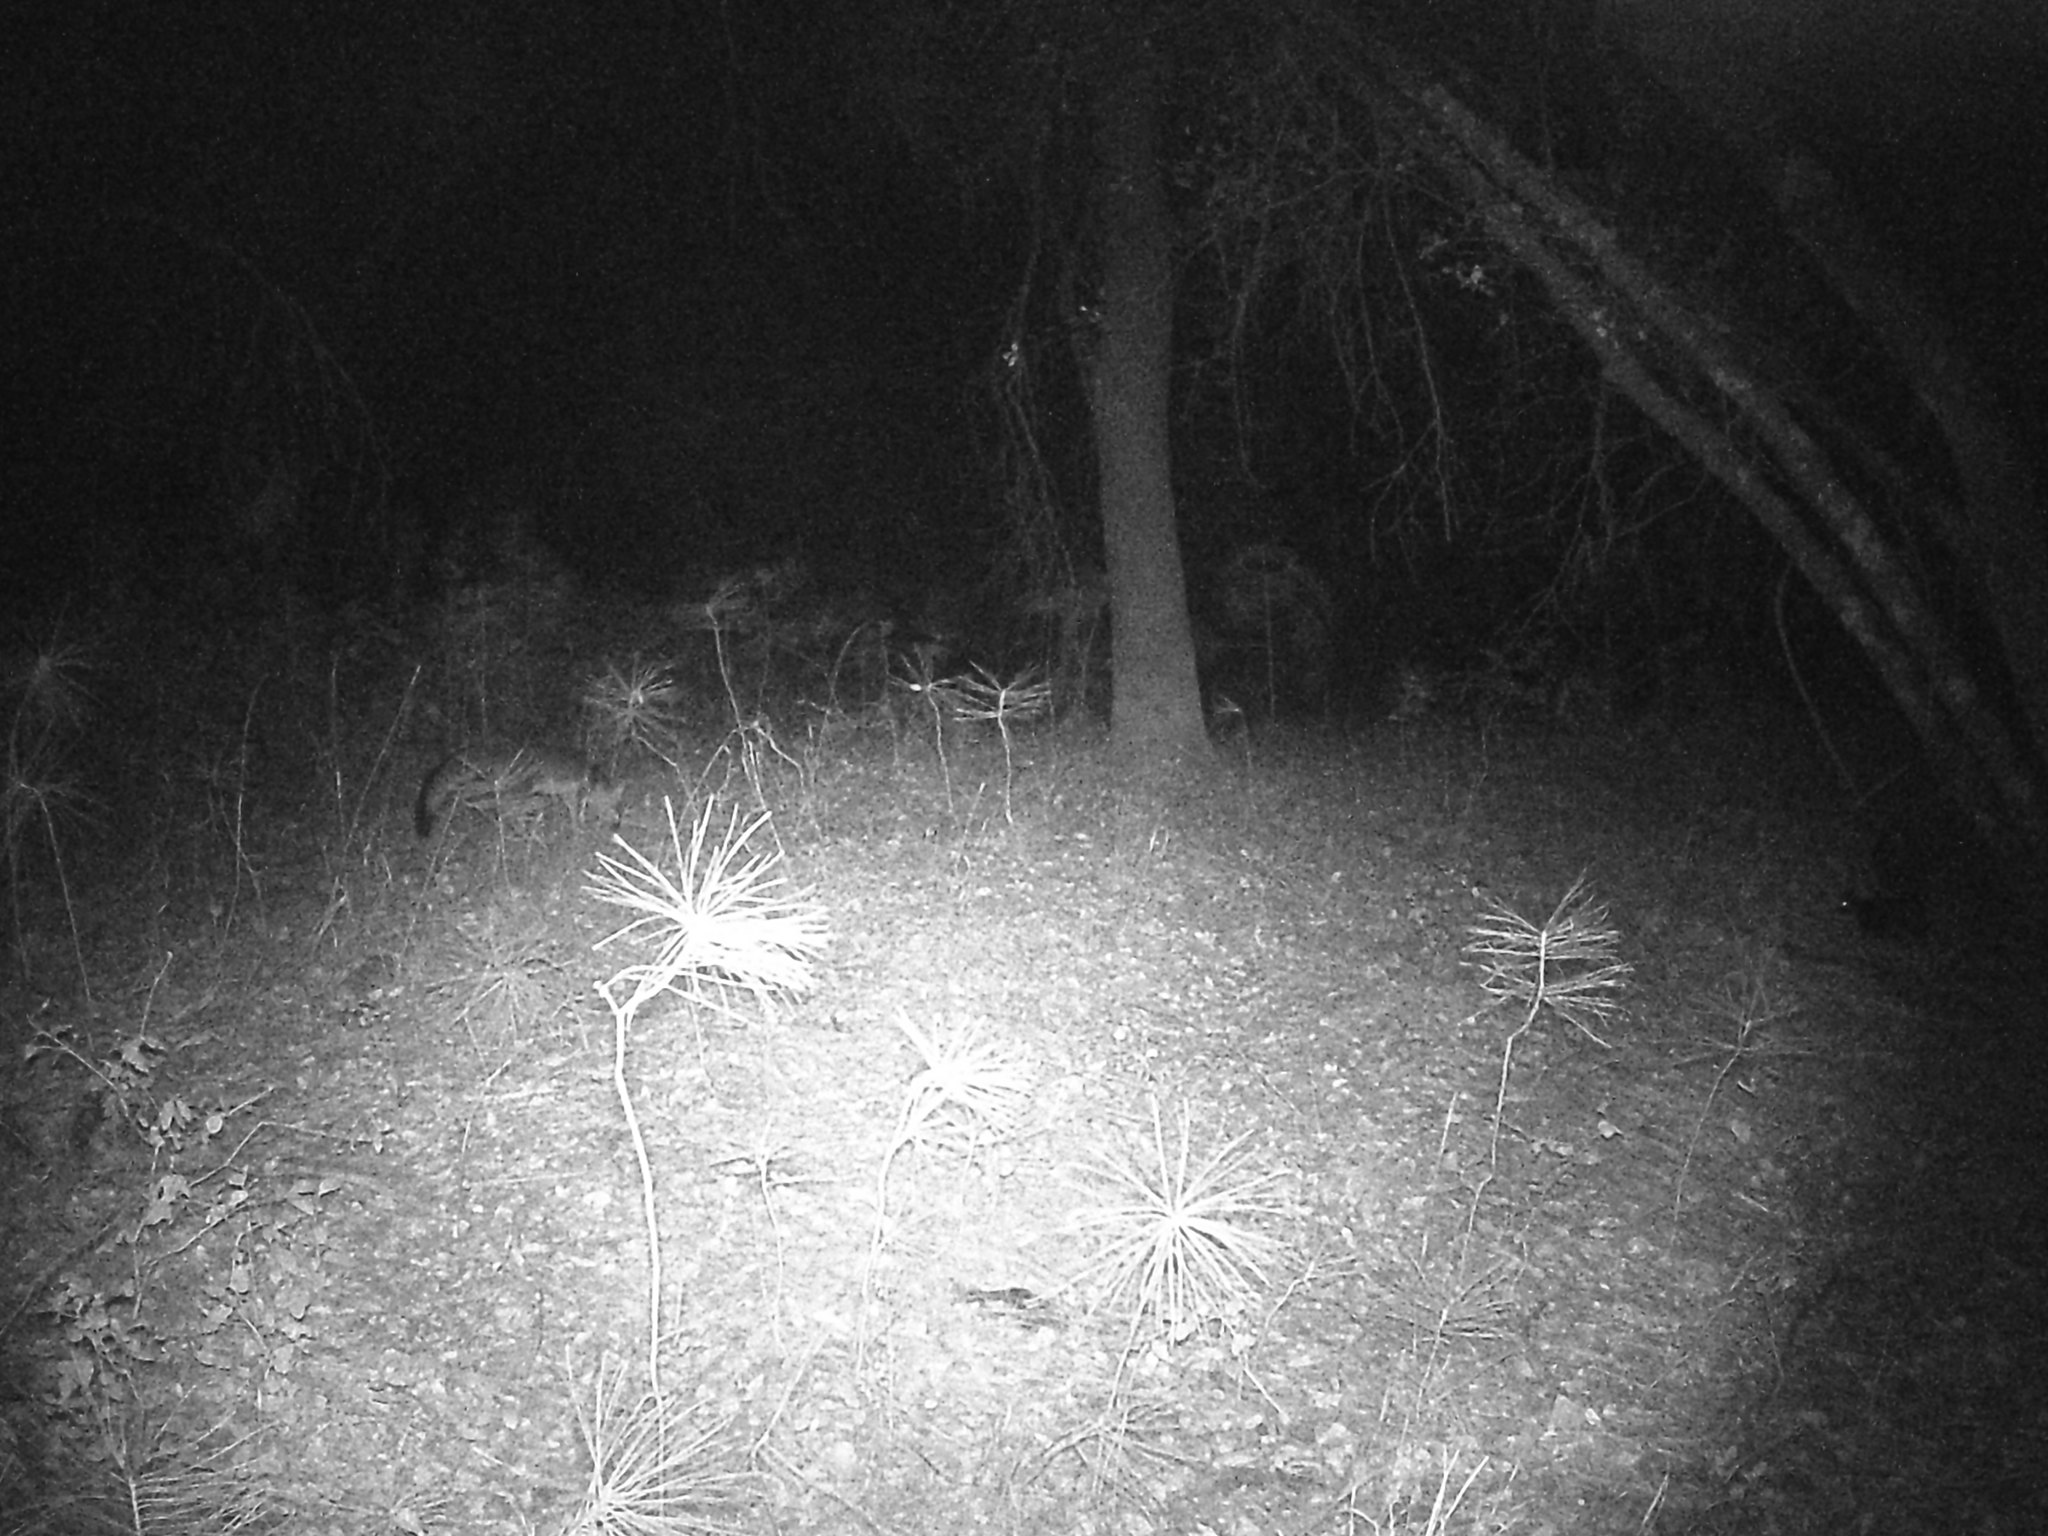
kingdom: Animalia
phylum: Chordata
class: Mammalia
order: Carnivora
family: Canidae
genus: Urocyon
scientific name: Urocyon cinereoargenteus
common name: Gray fox
